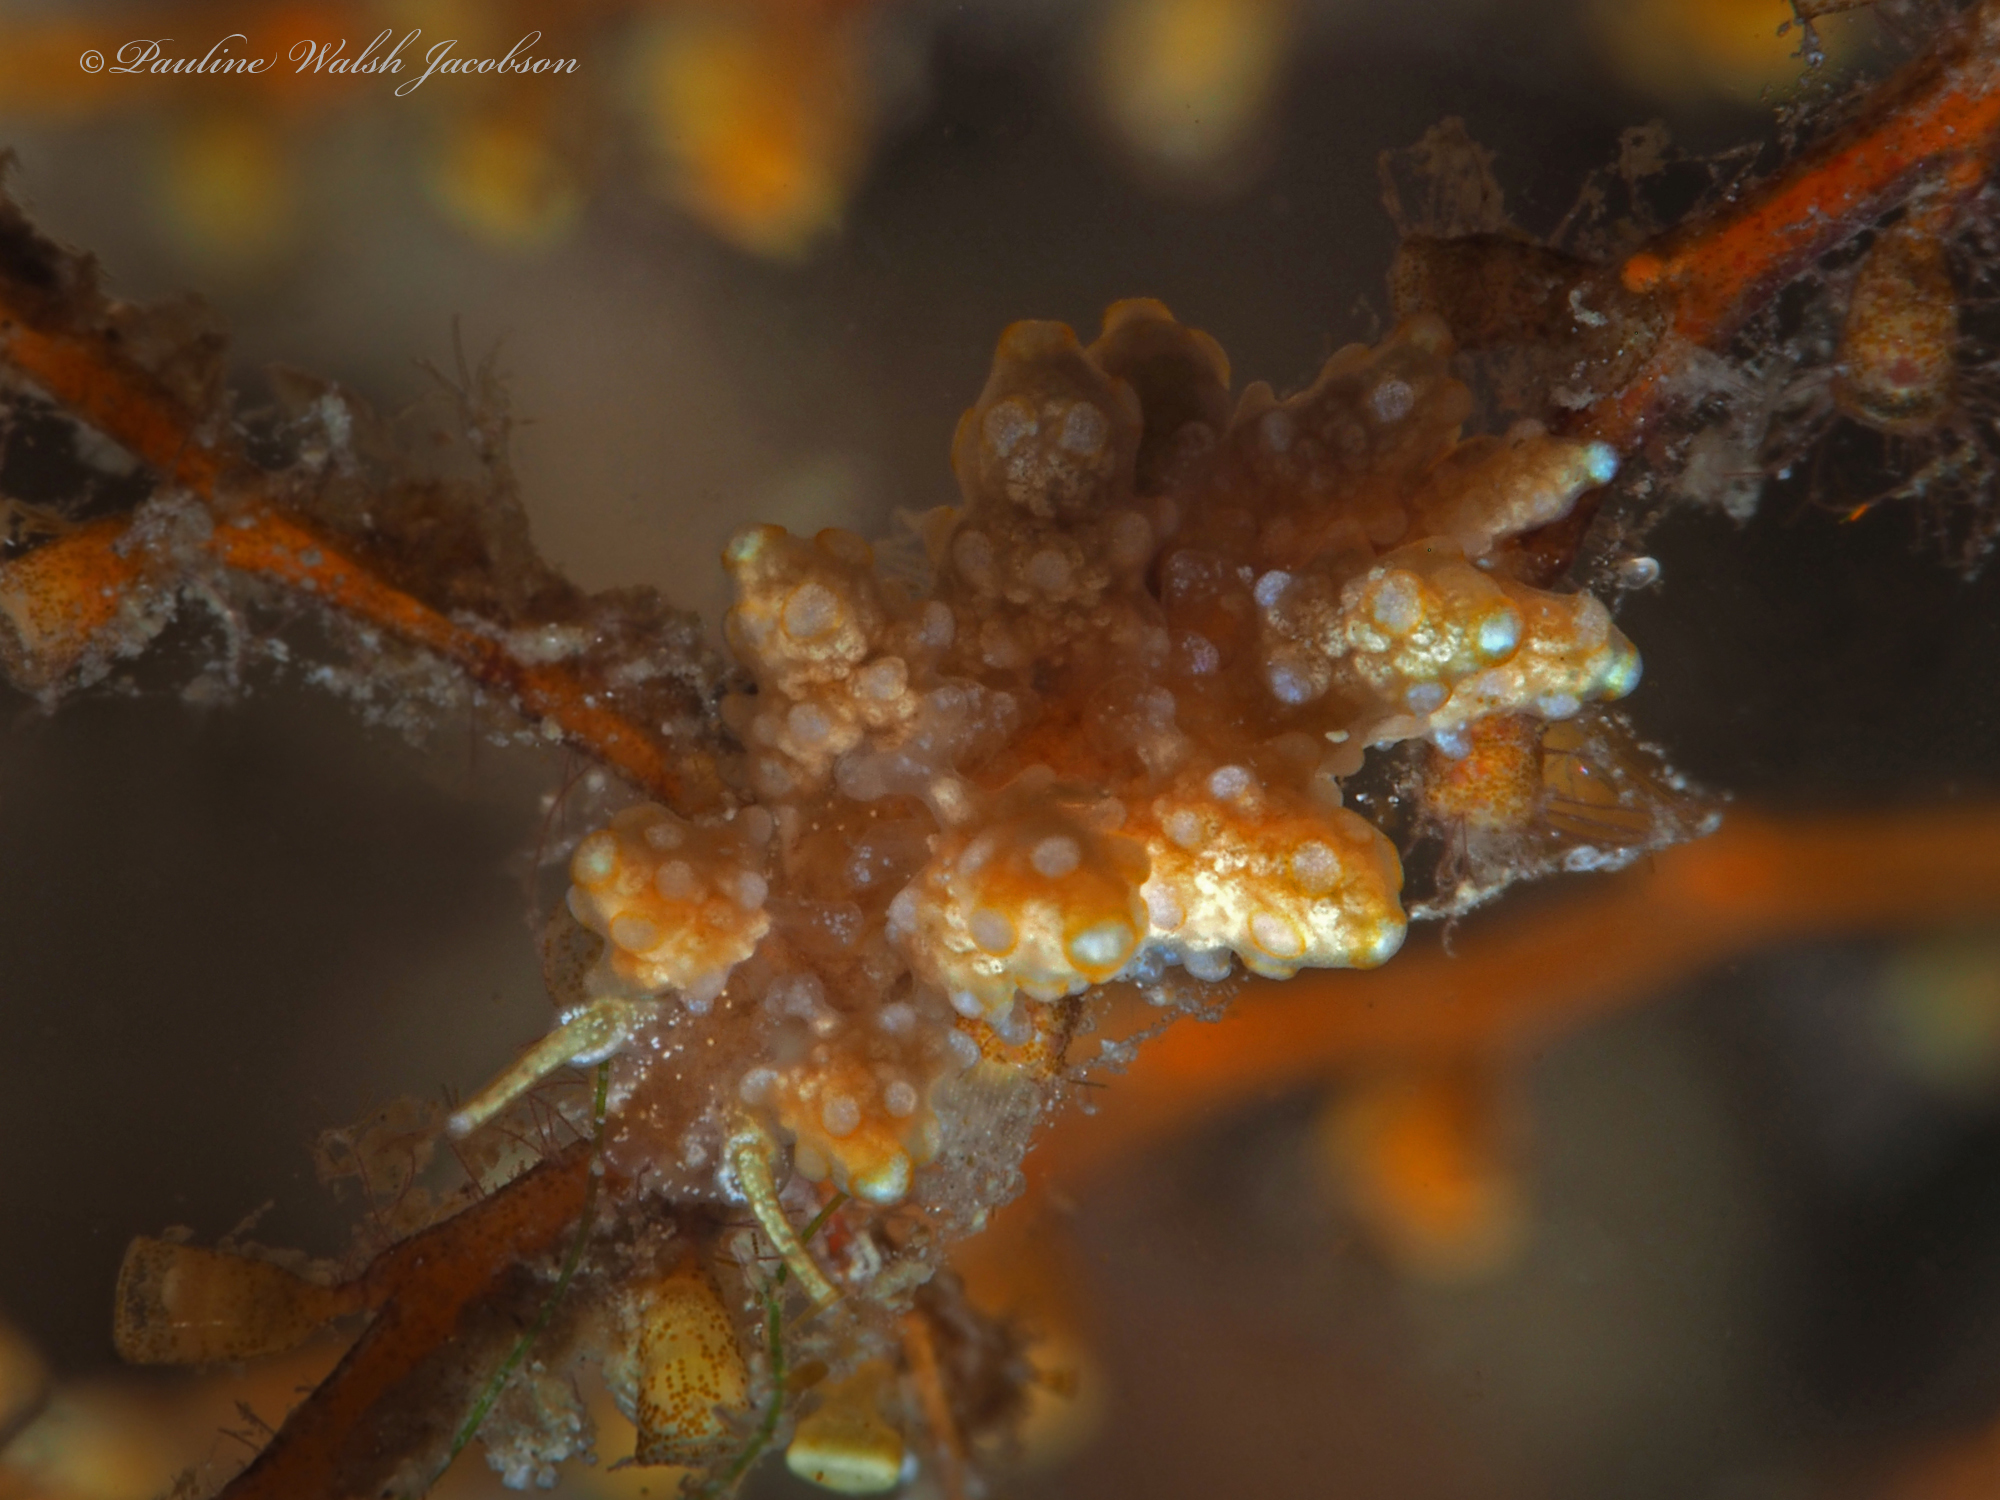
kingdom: Animalia
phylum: Mollusca
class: Gastropoda
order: Nudibranchia
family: Dotidae
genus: Doto
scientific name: Doto torrelavega
